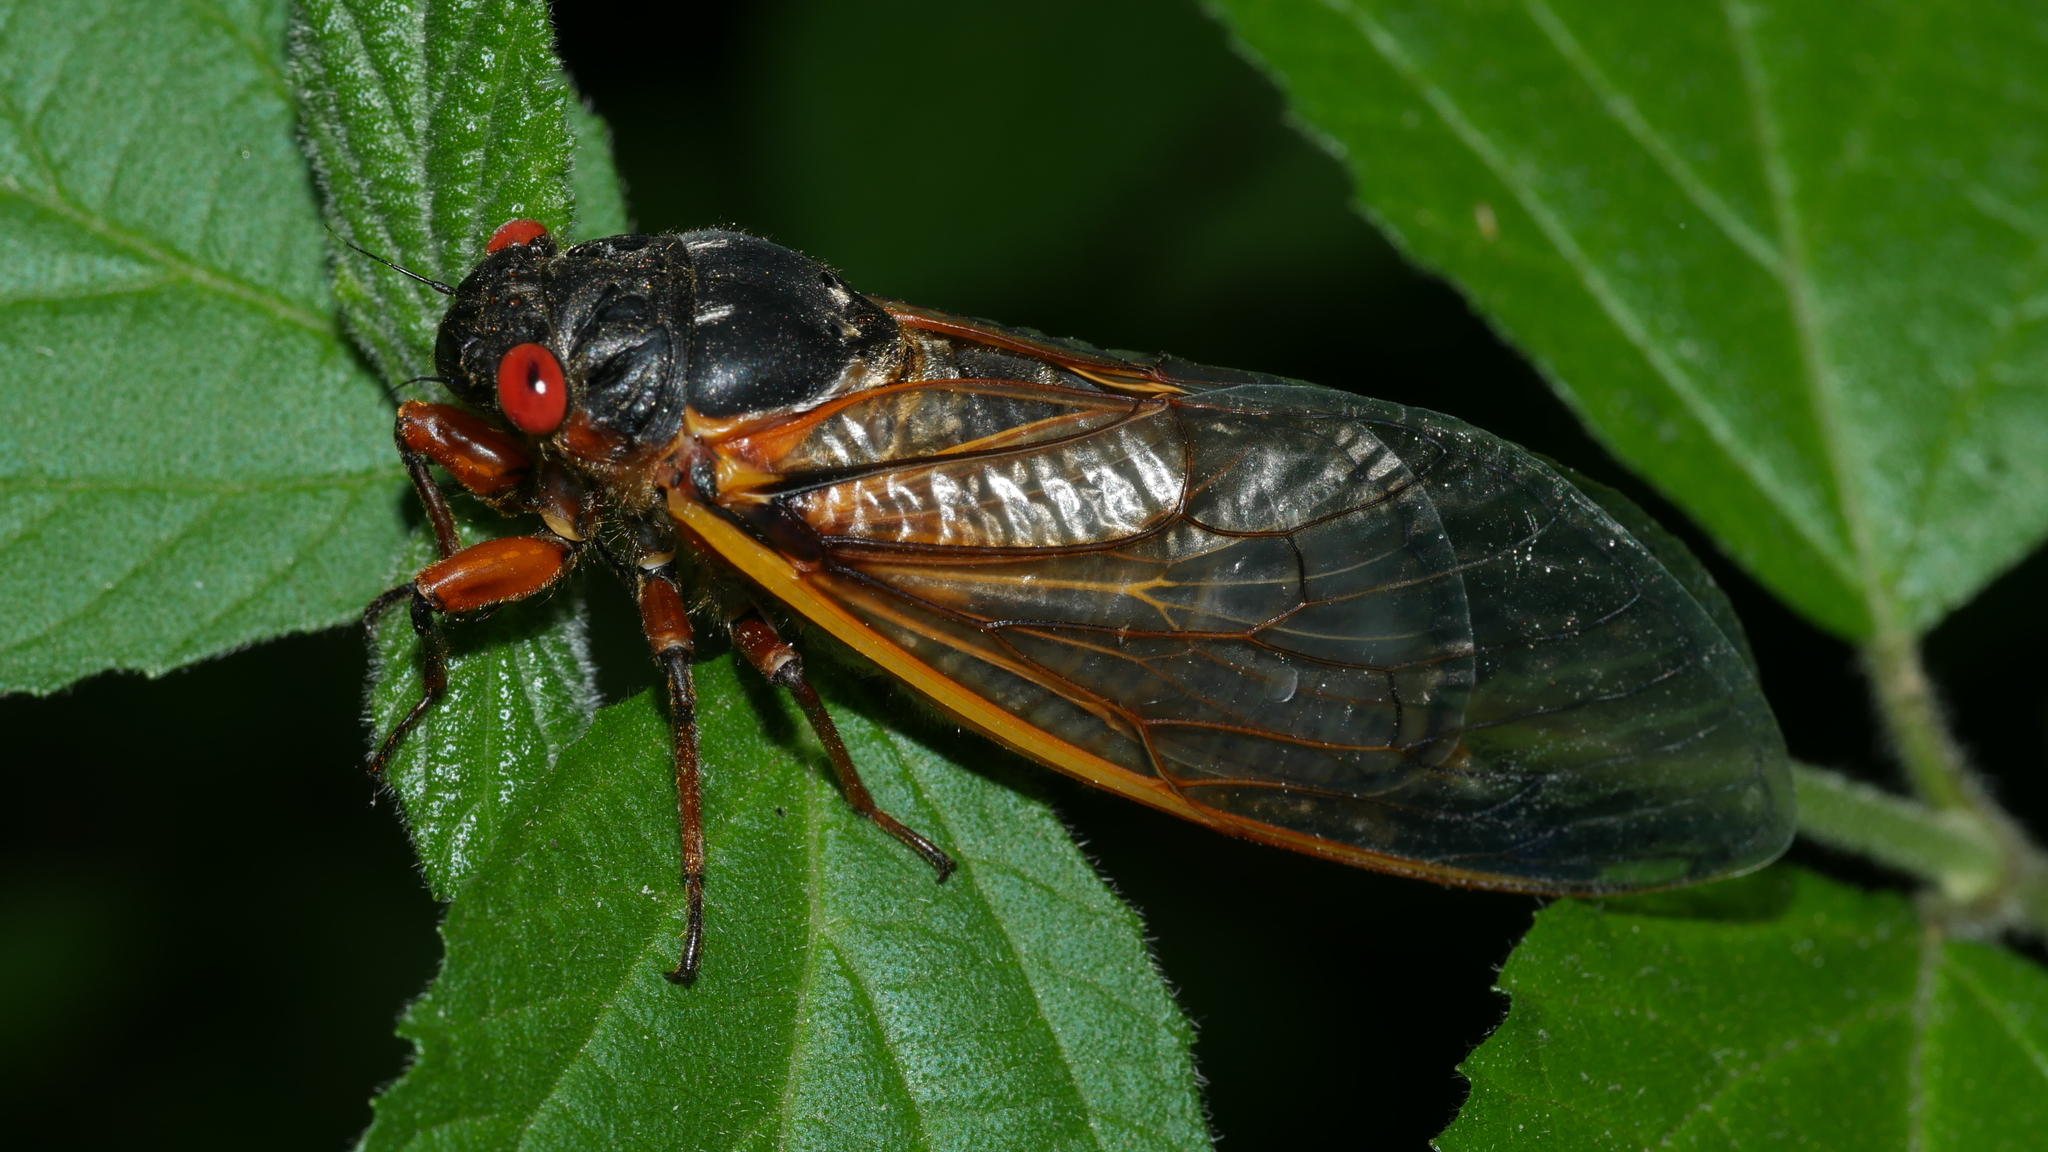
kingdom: Animalia
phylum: Arthropoda
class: Insecta
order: Hemiptera
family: Cicadidae
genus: Magicicada
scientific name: Magicicada septendecim
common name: Periodical cicada
